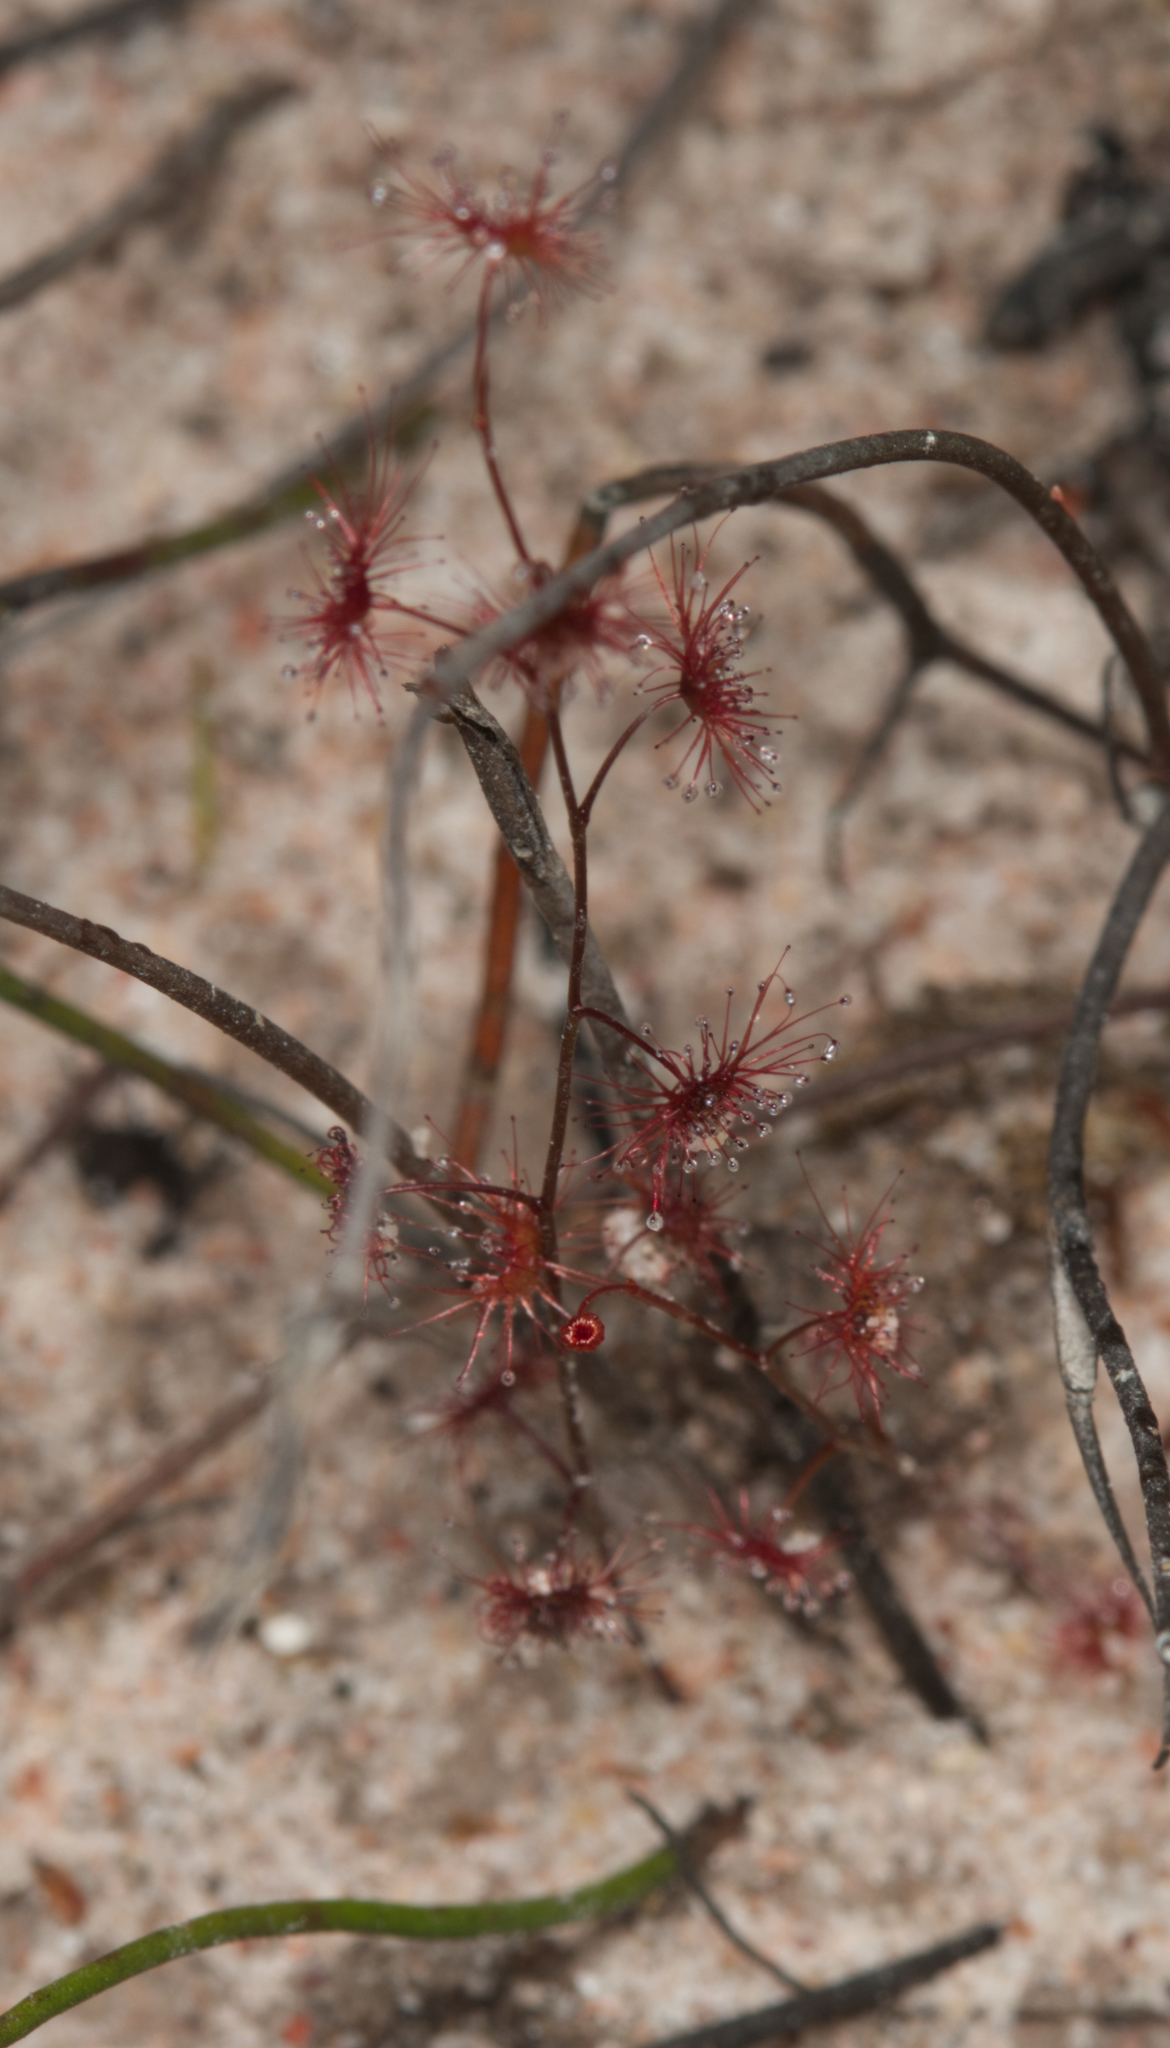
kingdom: Plantae
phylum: Tracheophyta
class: Magnoliopsida
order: Caryophyllales
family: Droseraceae
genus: Drosera
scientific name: Drosera peltata
